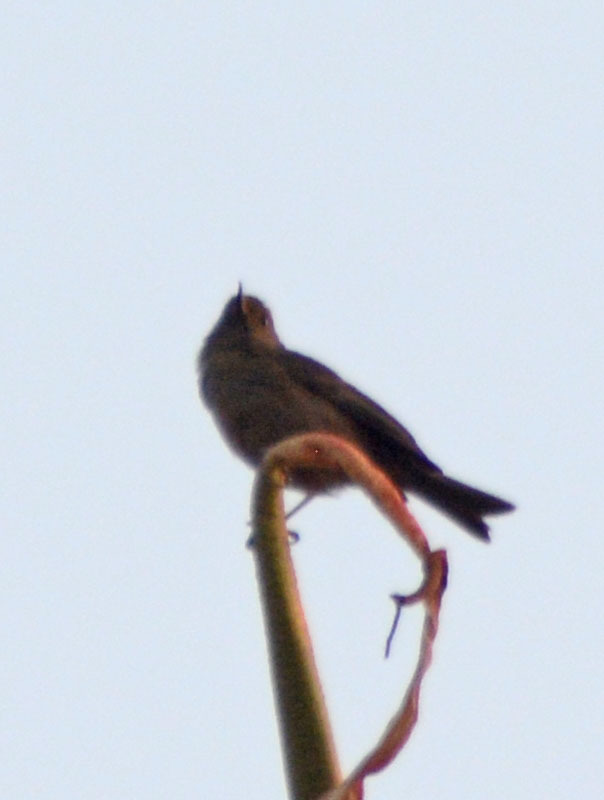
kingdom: Animalia
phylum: Chordata
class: Aves
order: Passeriformes
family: Thraupidae
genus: Diglossa
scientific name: Diglossa baritula
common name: Cinnamon-bellied flowerpiercer
